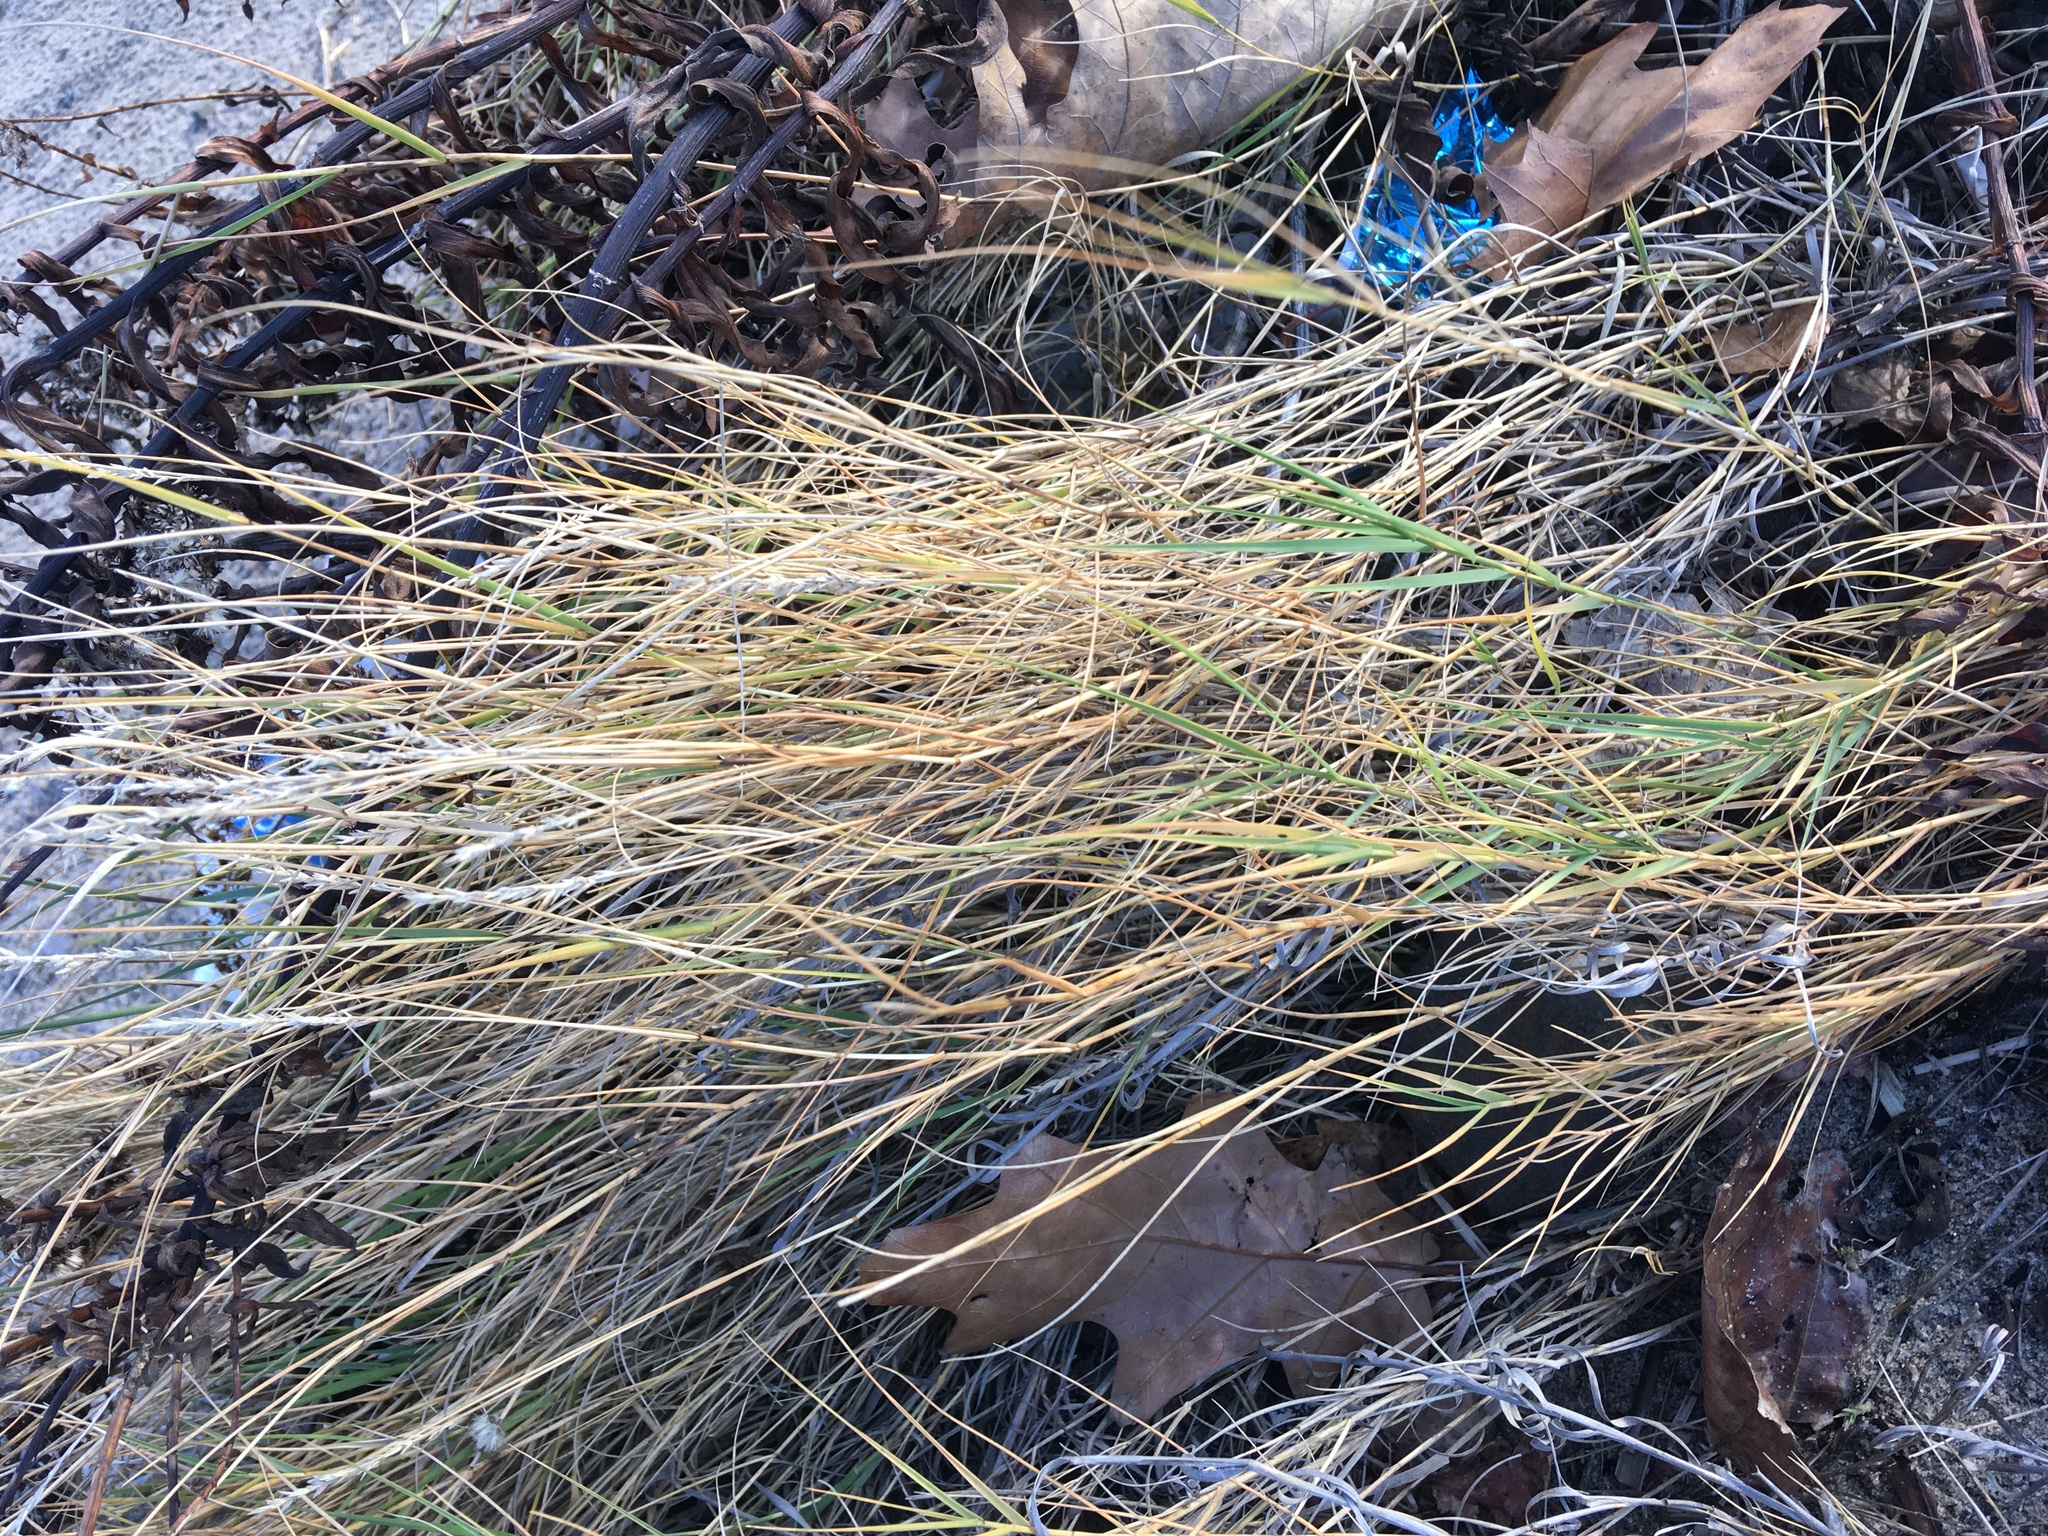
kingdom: Plantae
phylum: Tracheophyta
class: Liliopsida
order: Poales
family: Poaceae
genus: Distichlis
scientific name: Distichlis spicata
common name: Saltgrass
